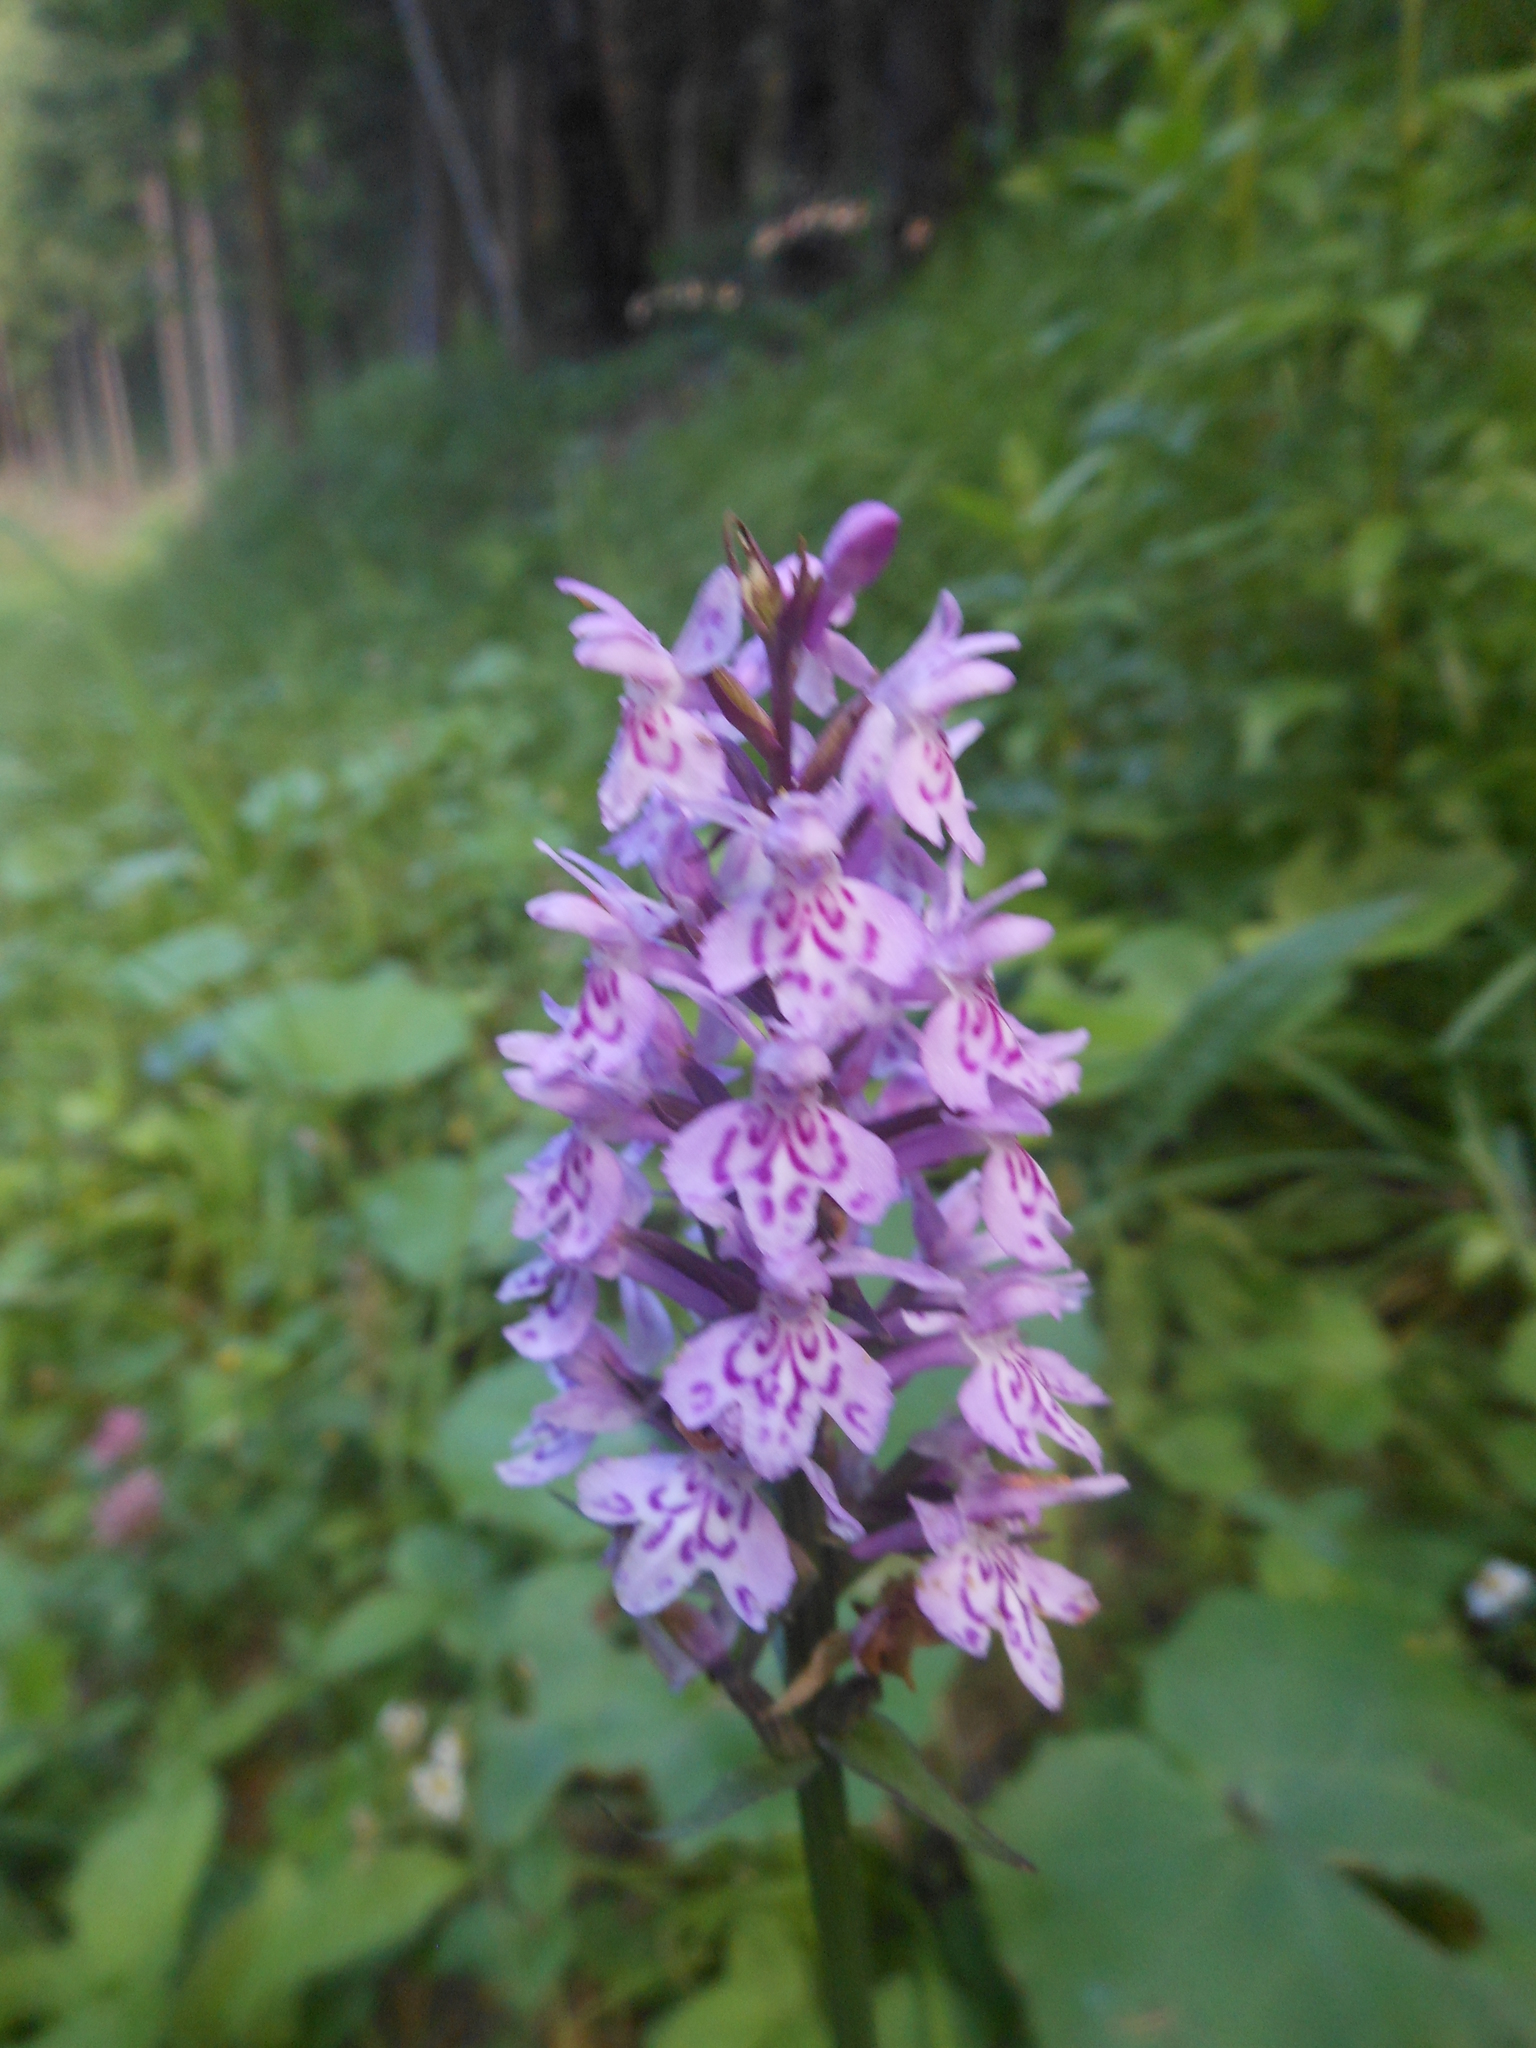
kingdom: Plantae
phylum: Tracheophyta
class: Liliopsida
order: Asparagales
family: Orchidaceae
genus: Dactylorhiza
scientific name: Dactylorhiza maculata
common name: Heath spotted-orchid
